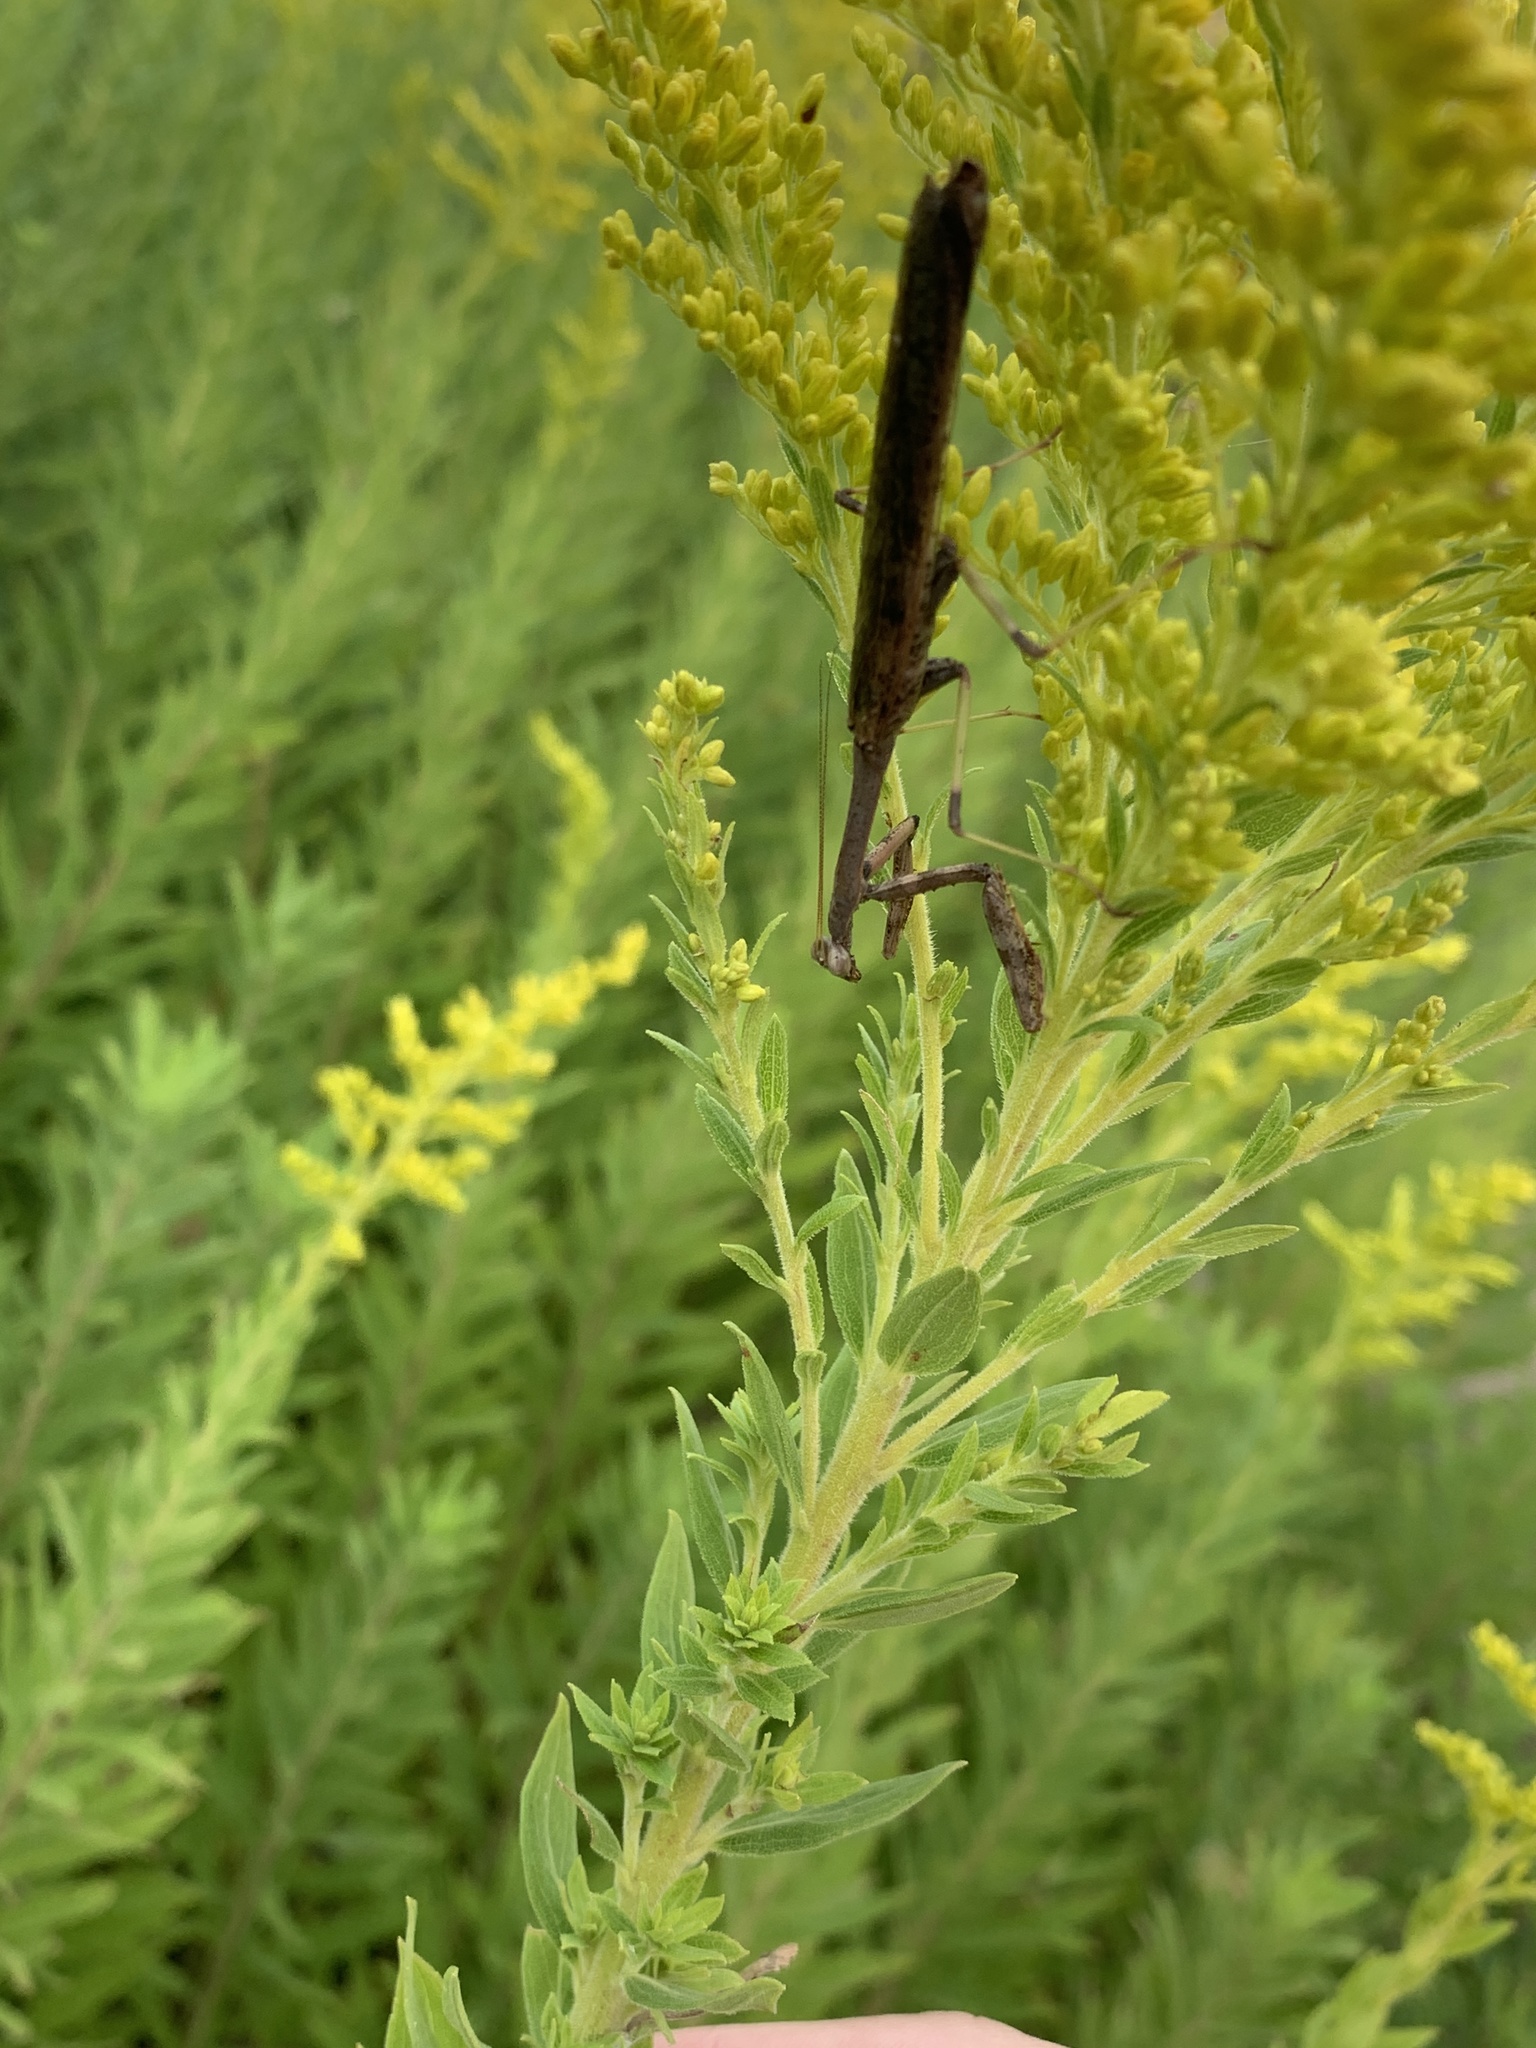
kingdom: Animalia
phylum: Arthropoda
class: Insecta
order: Mantodea
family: Mantidae
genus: Stagmomantis
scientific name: Stagmomantis carolina
